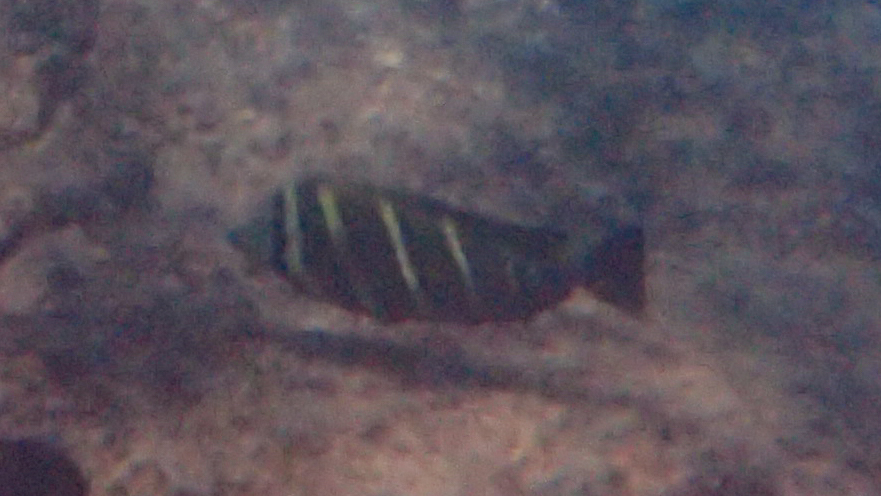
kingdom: Animalia
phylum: Chordata
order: Perciformes
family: Acanthuridae
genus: Zebrasoma
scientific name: Zebrasoma veliferum
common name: Sailfin surgeonfish
